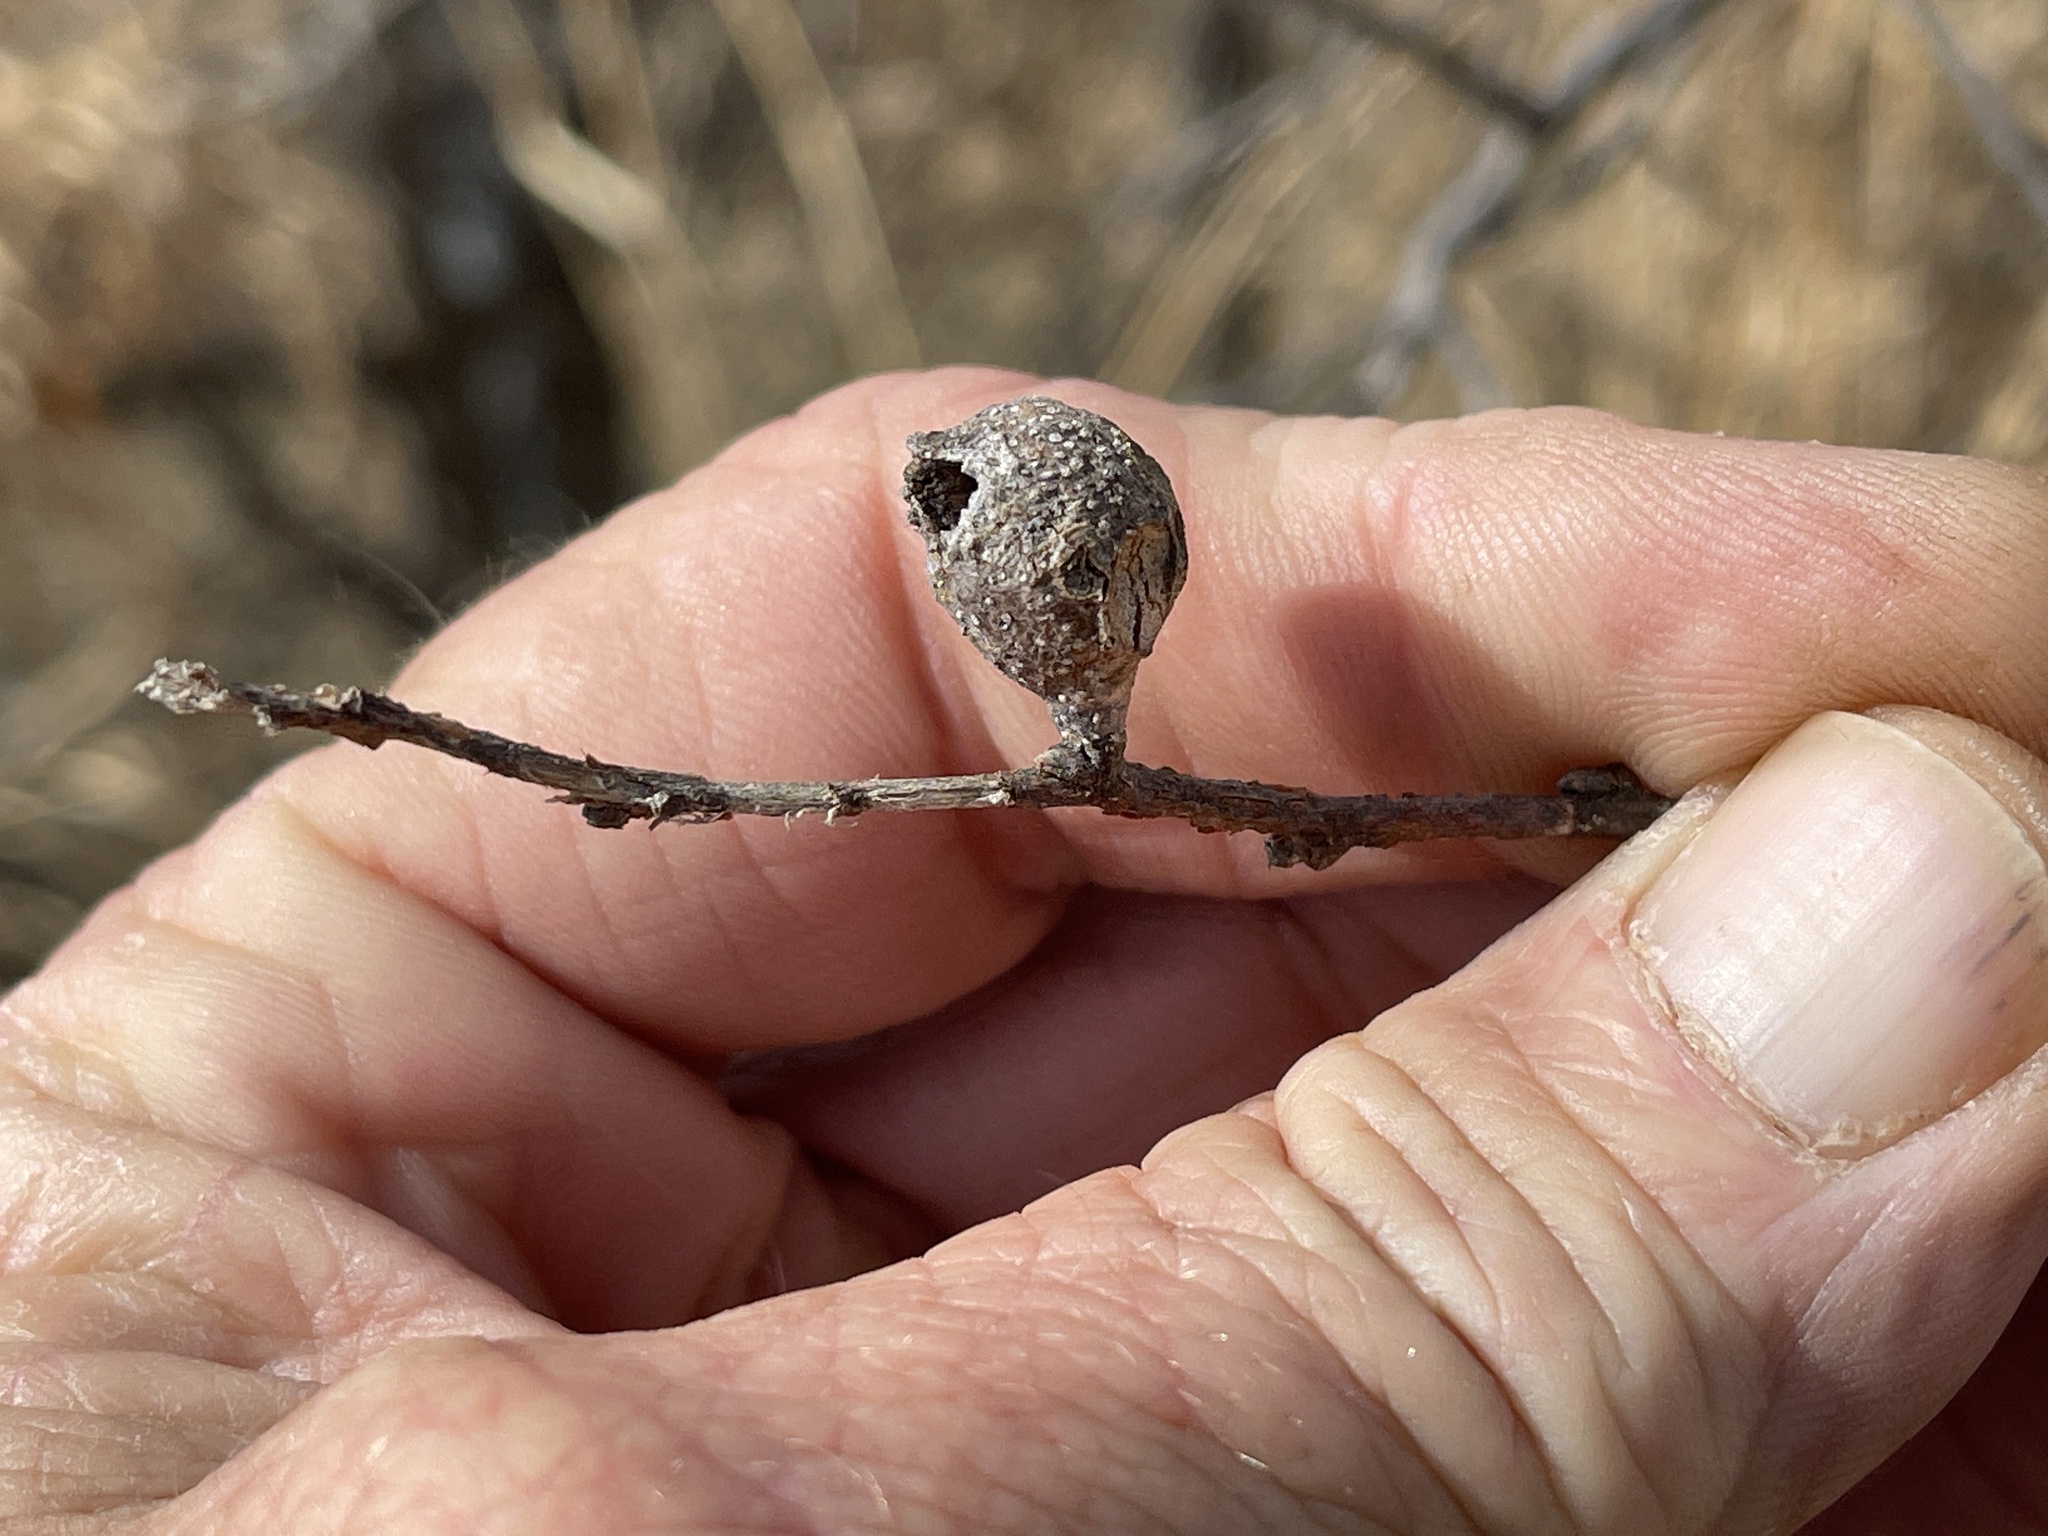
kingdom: Animalia
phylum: Arthropoda
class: Insecta
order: Hemiptera
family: Aphalaridae
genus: Pachypsylla
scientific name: Pachypsylla venusta
